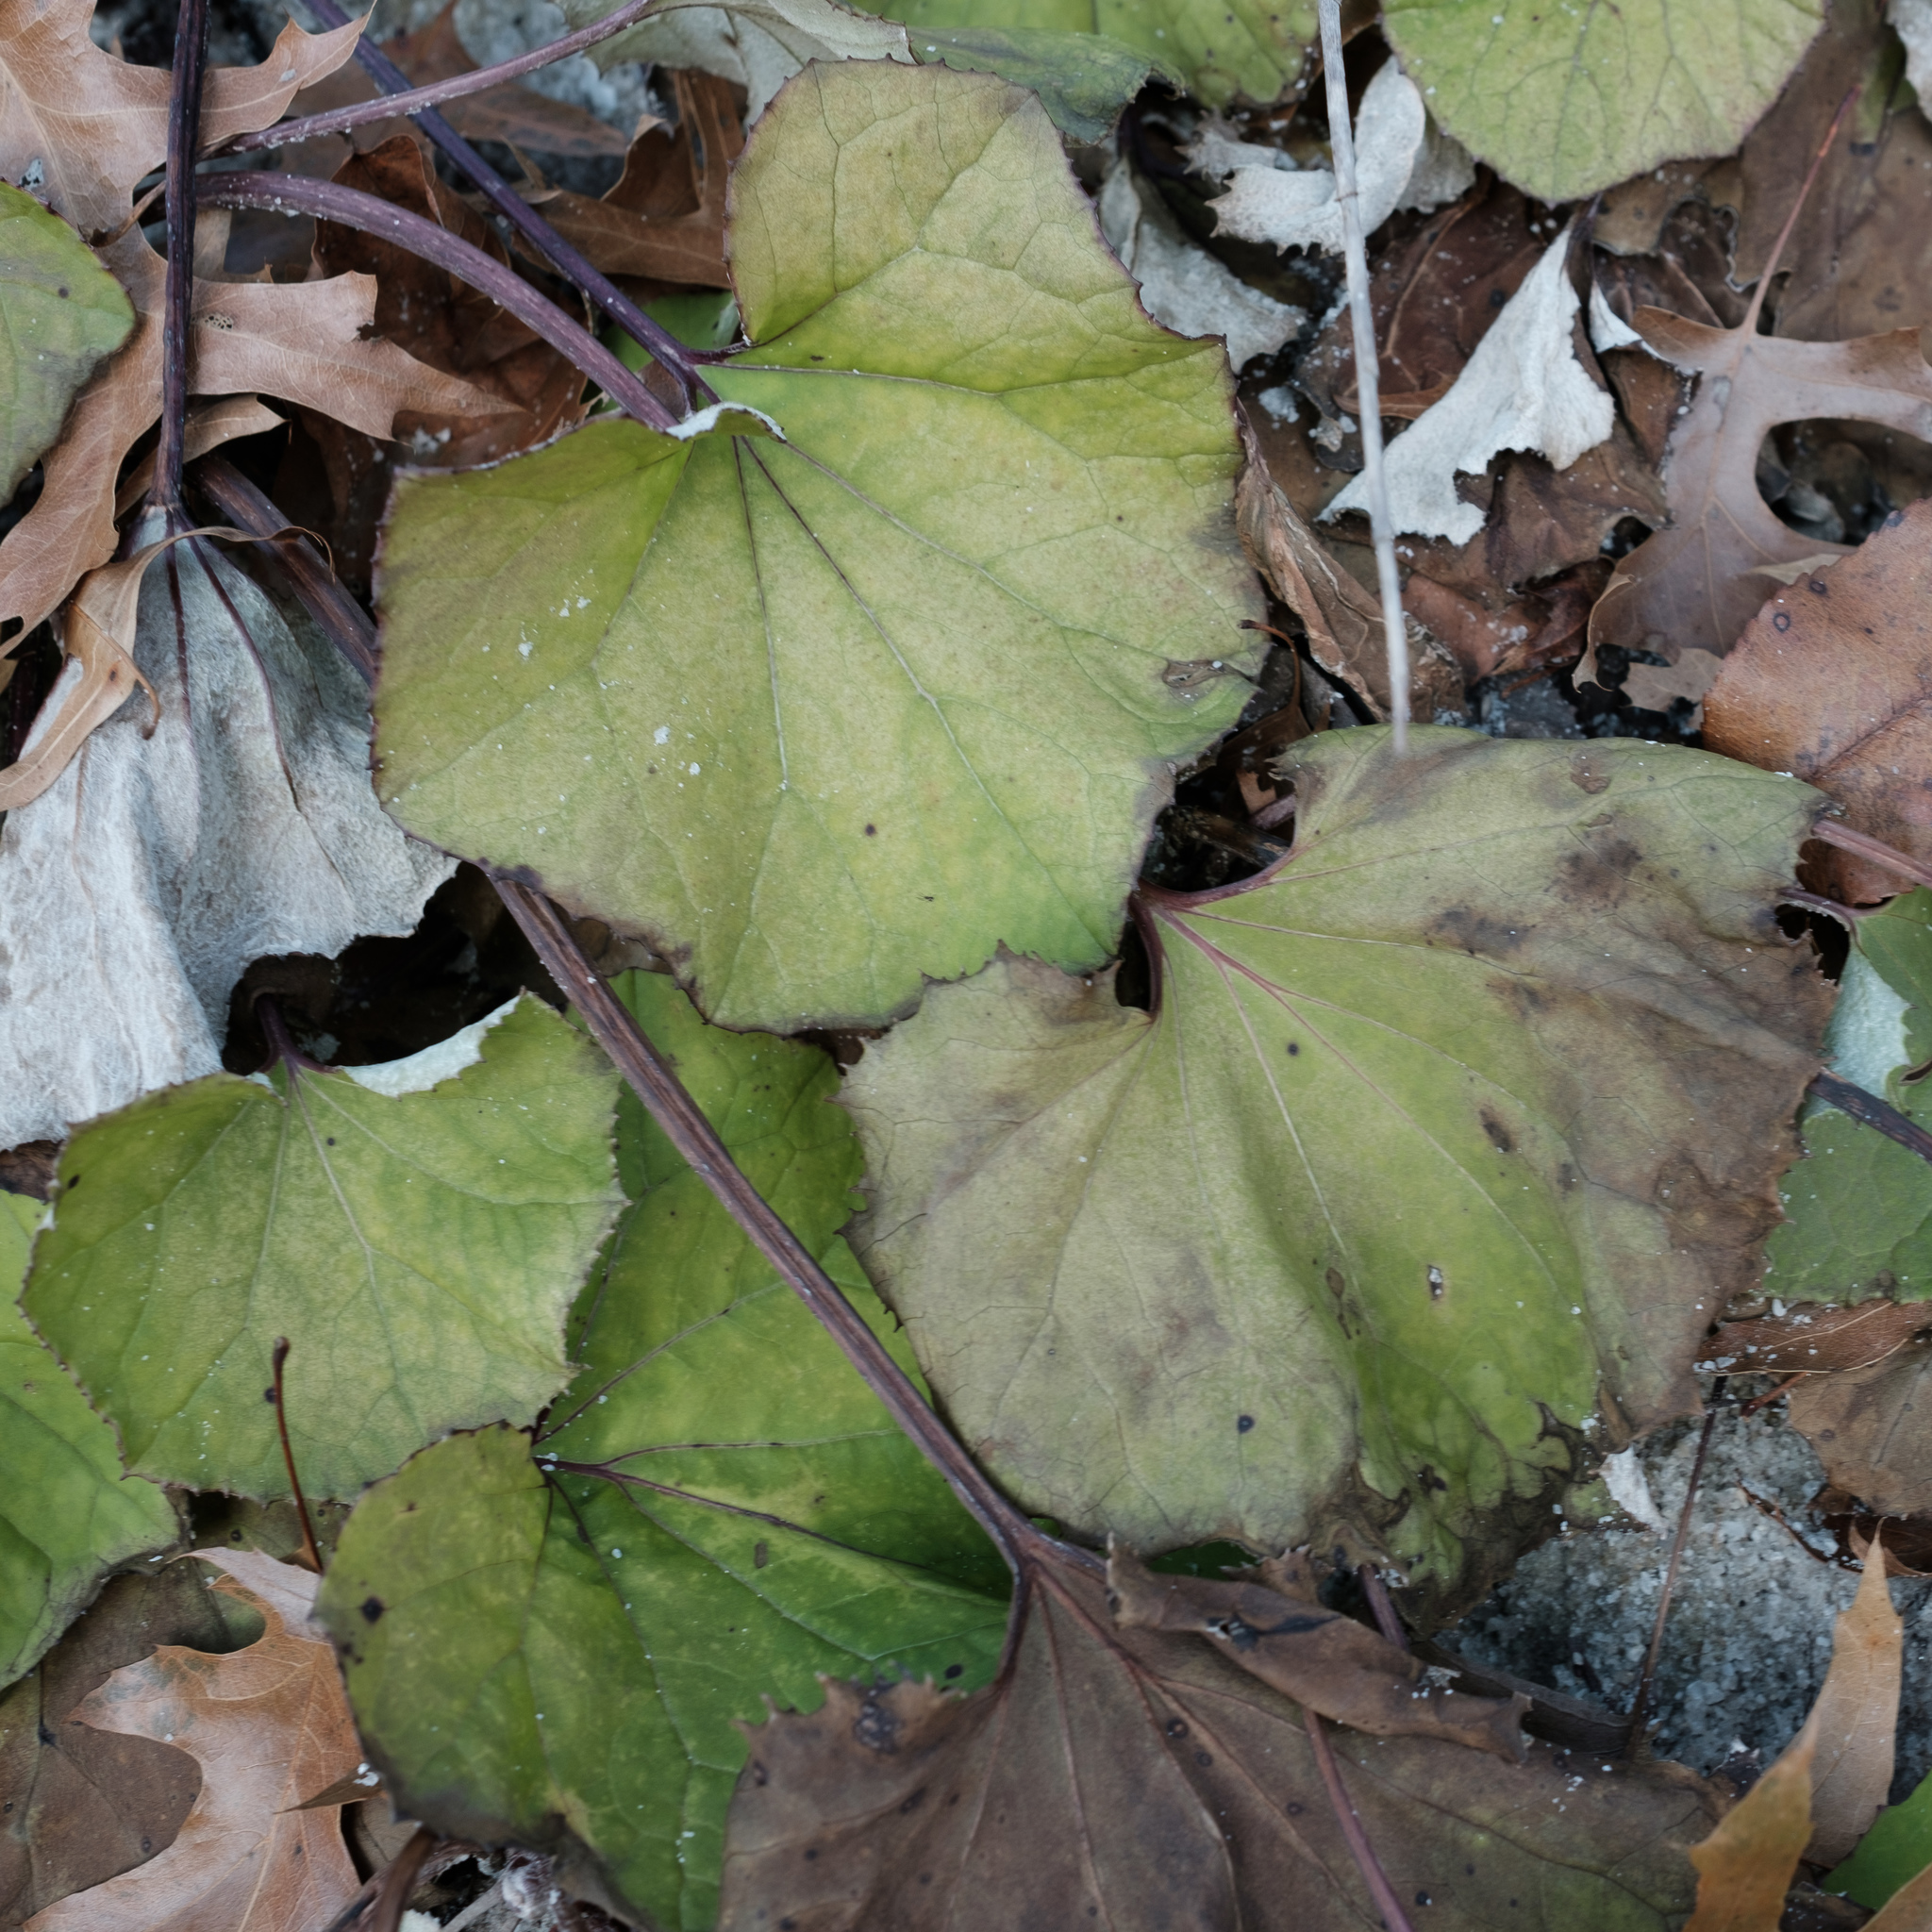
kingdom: Plantae
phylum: Tracheophyta
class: Magnoliopsida
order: Asterales
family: Asteraceae
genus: Tussilago
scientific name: Tussilago farfara
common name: Coltsfoot
